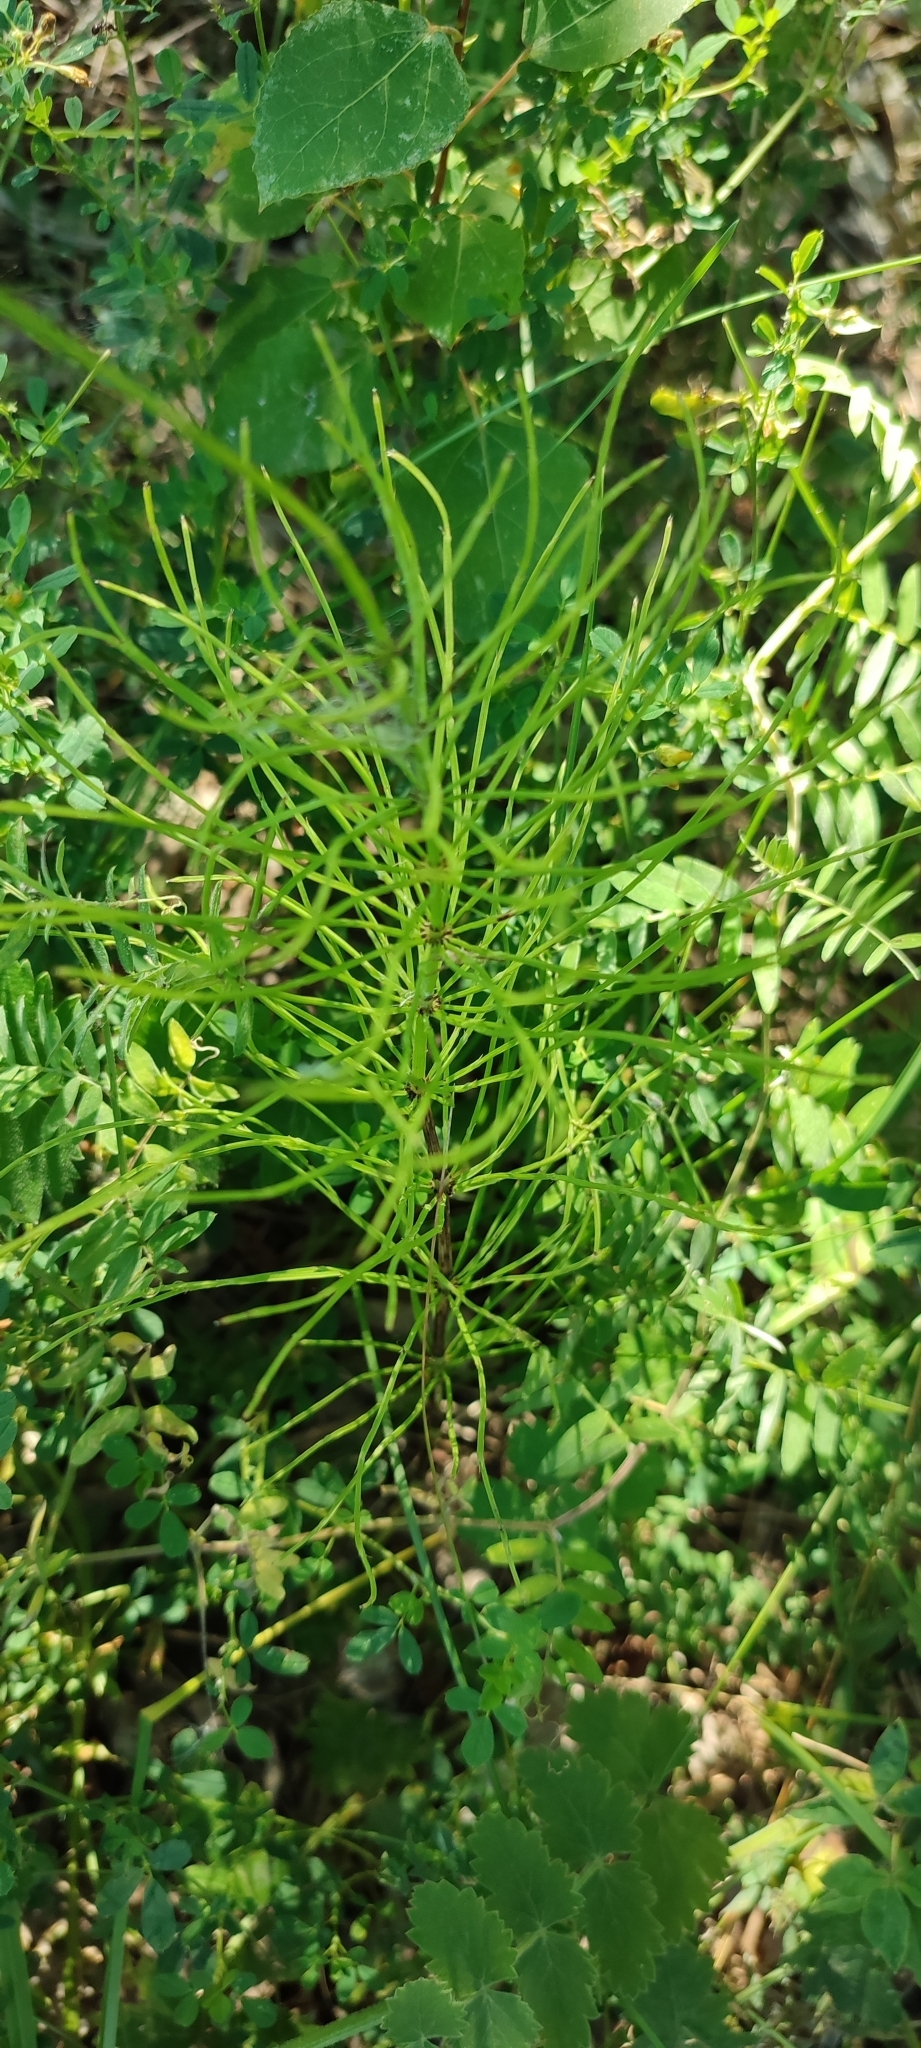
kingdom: Plantae
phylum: Tracheophyta
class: Polypodiopsida
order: Equisetales
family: Equisetaceae
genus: Equisetum
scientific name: Equisetum arvense
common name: Field horsetail
